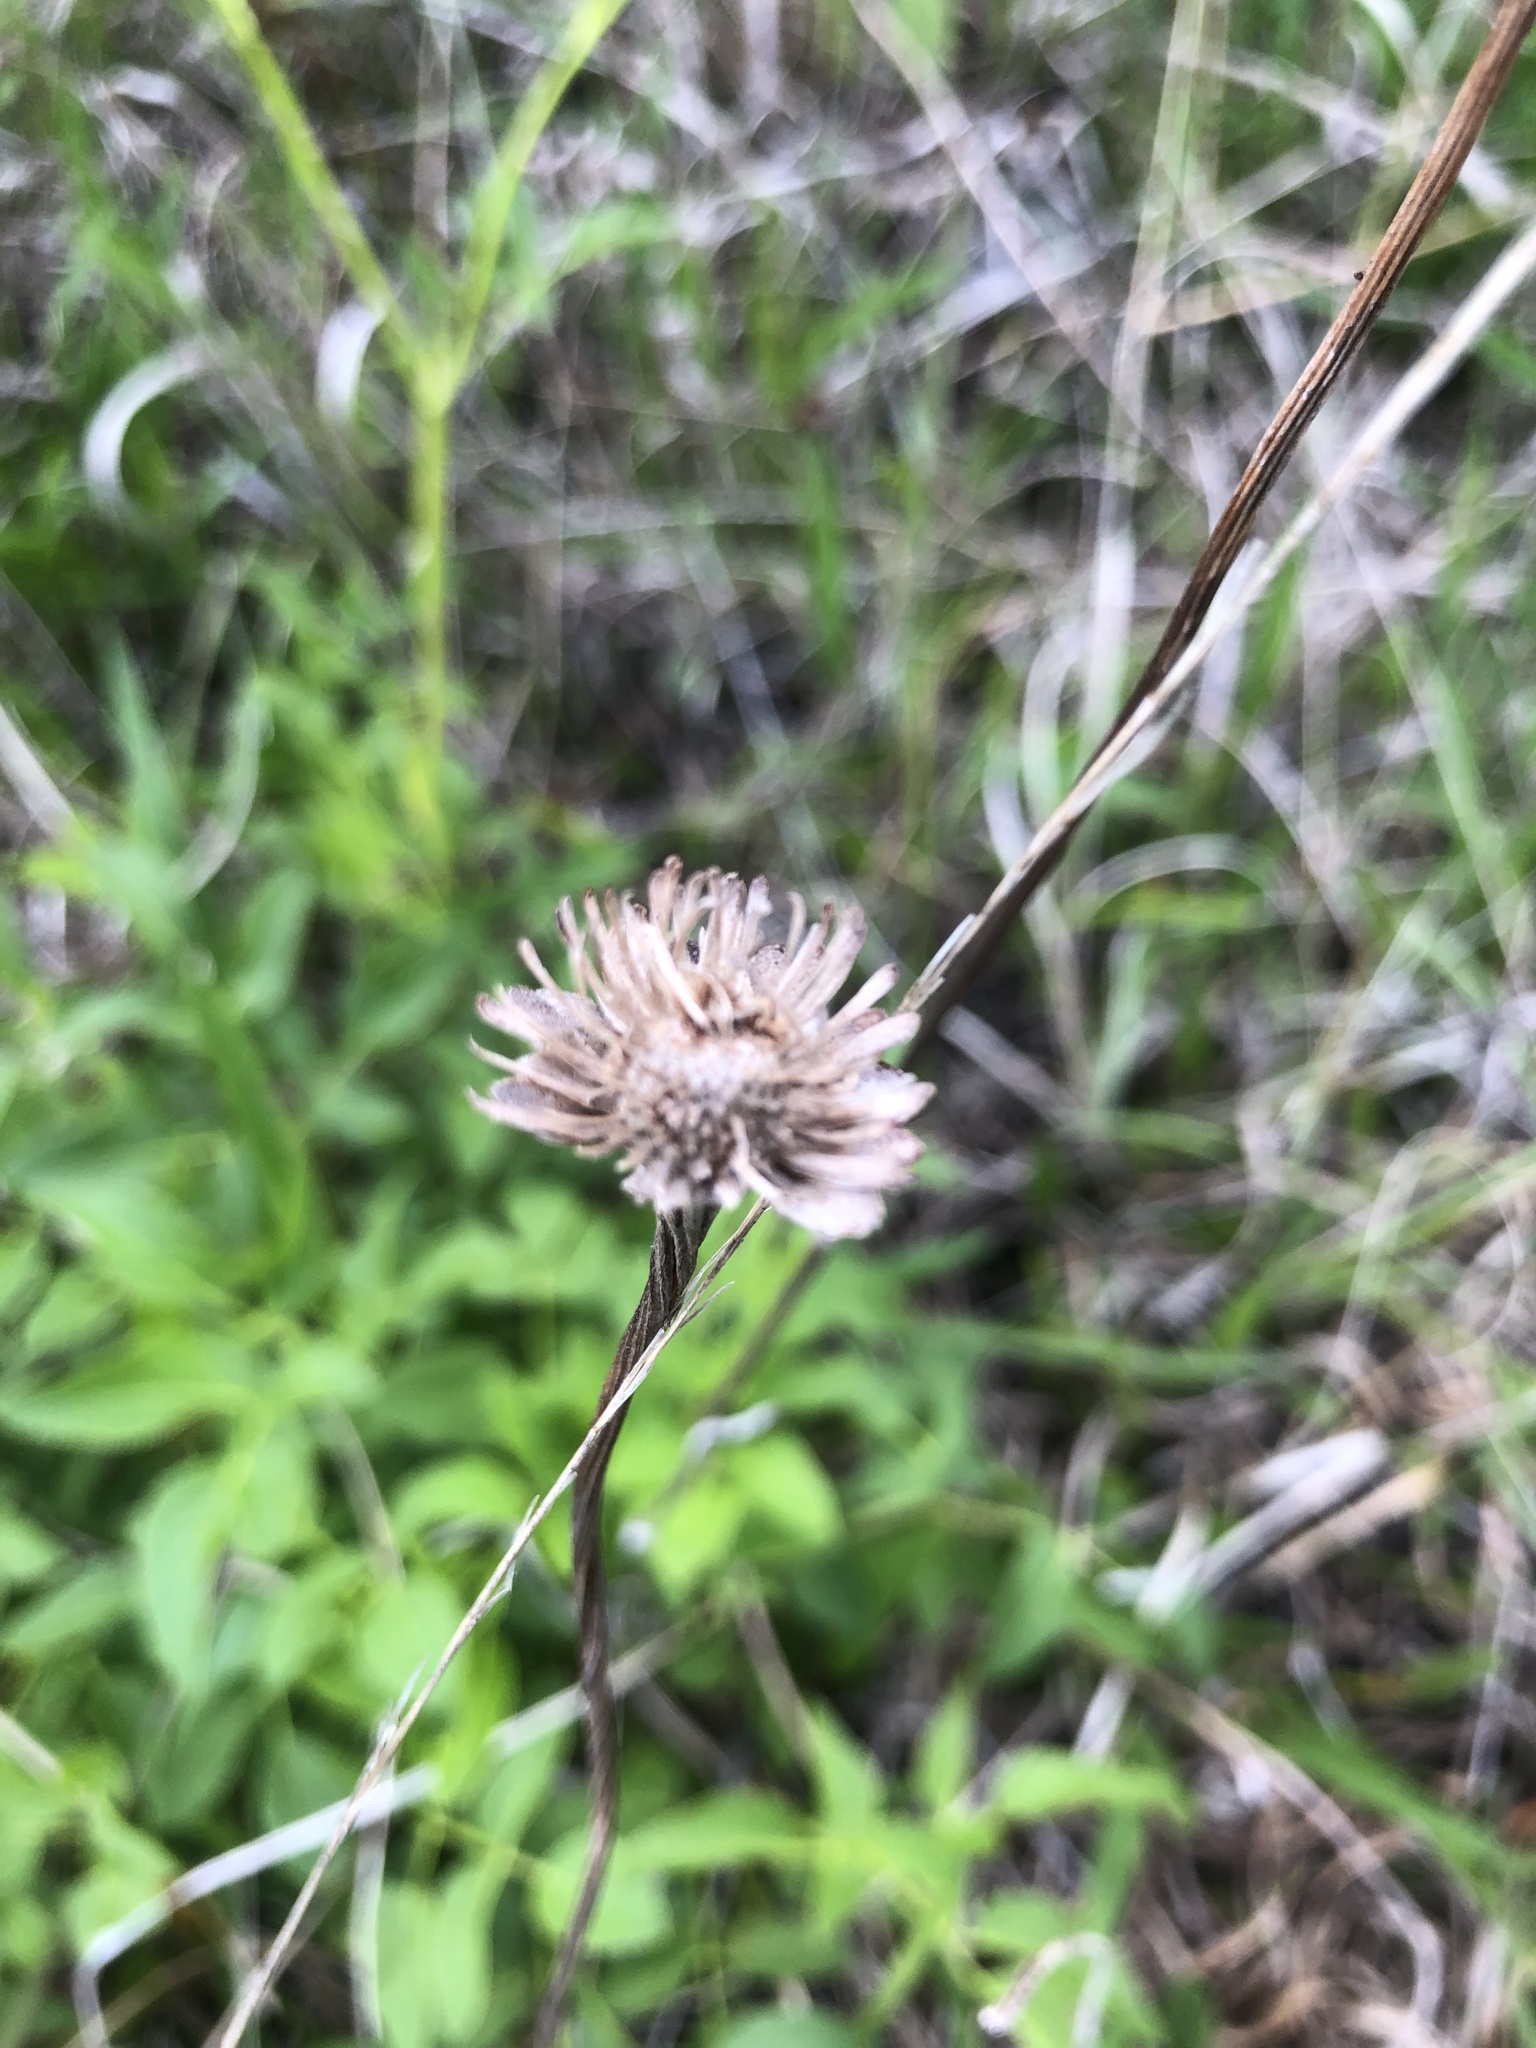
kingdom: Plantae
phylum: Tracheophyta
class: Magnoliopsida
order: Asterales
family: Asteraceae
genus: Marshallia
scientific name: Marshallia legrandii
